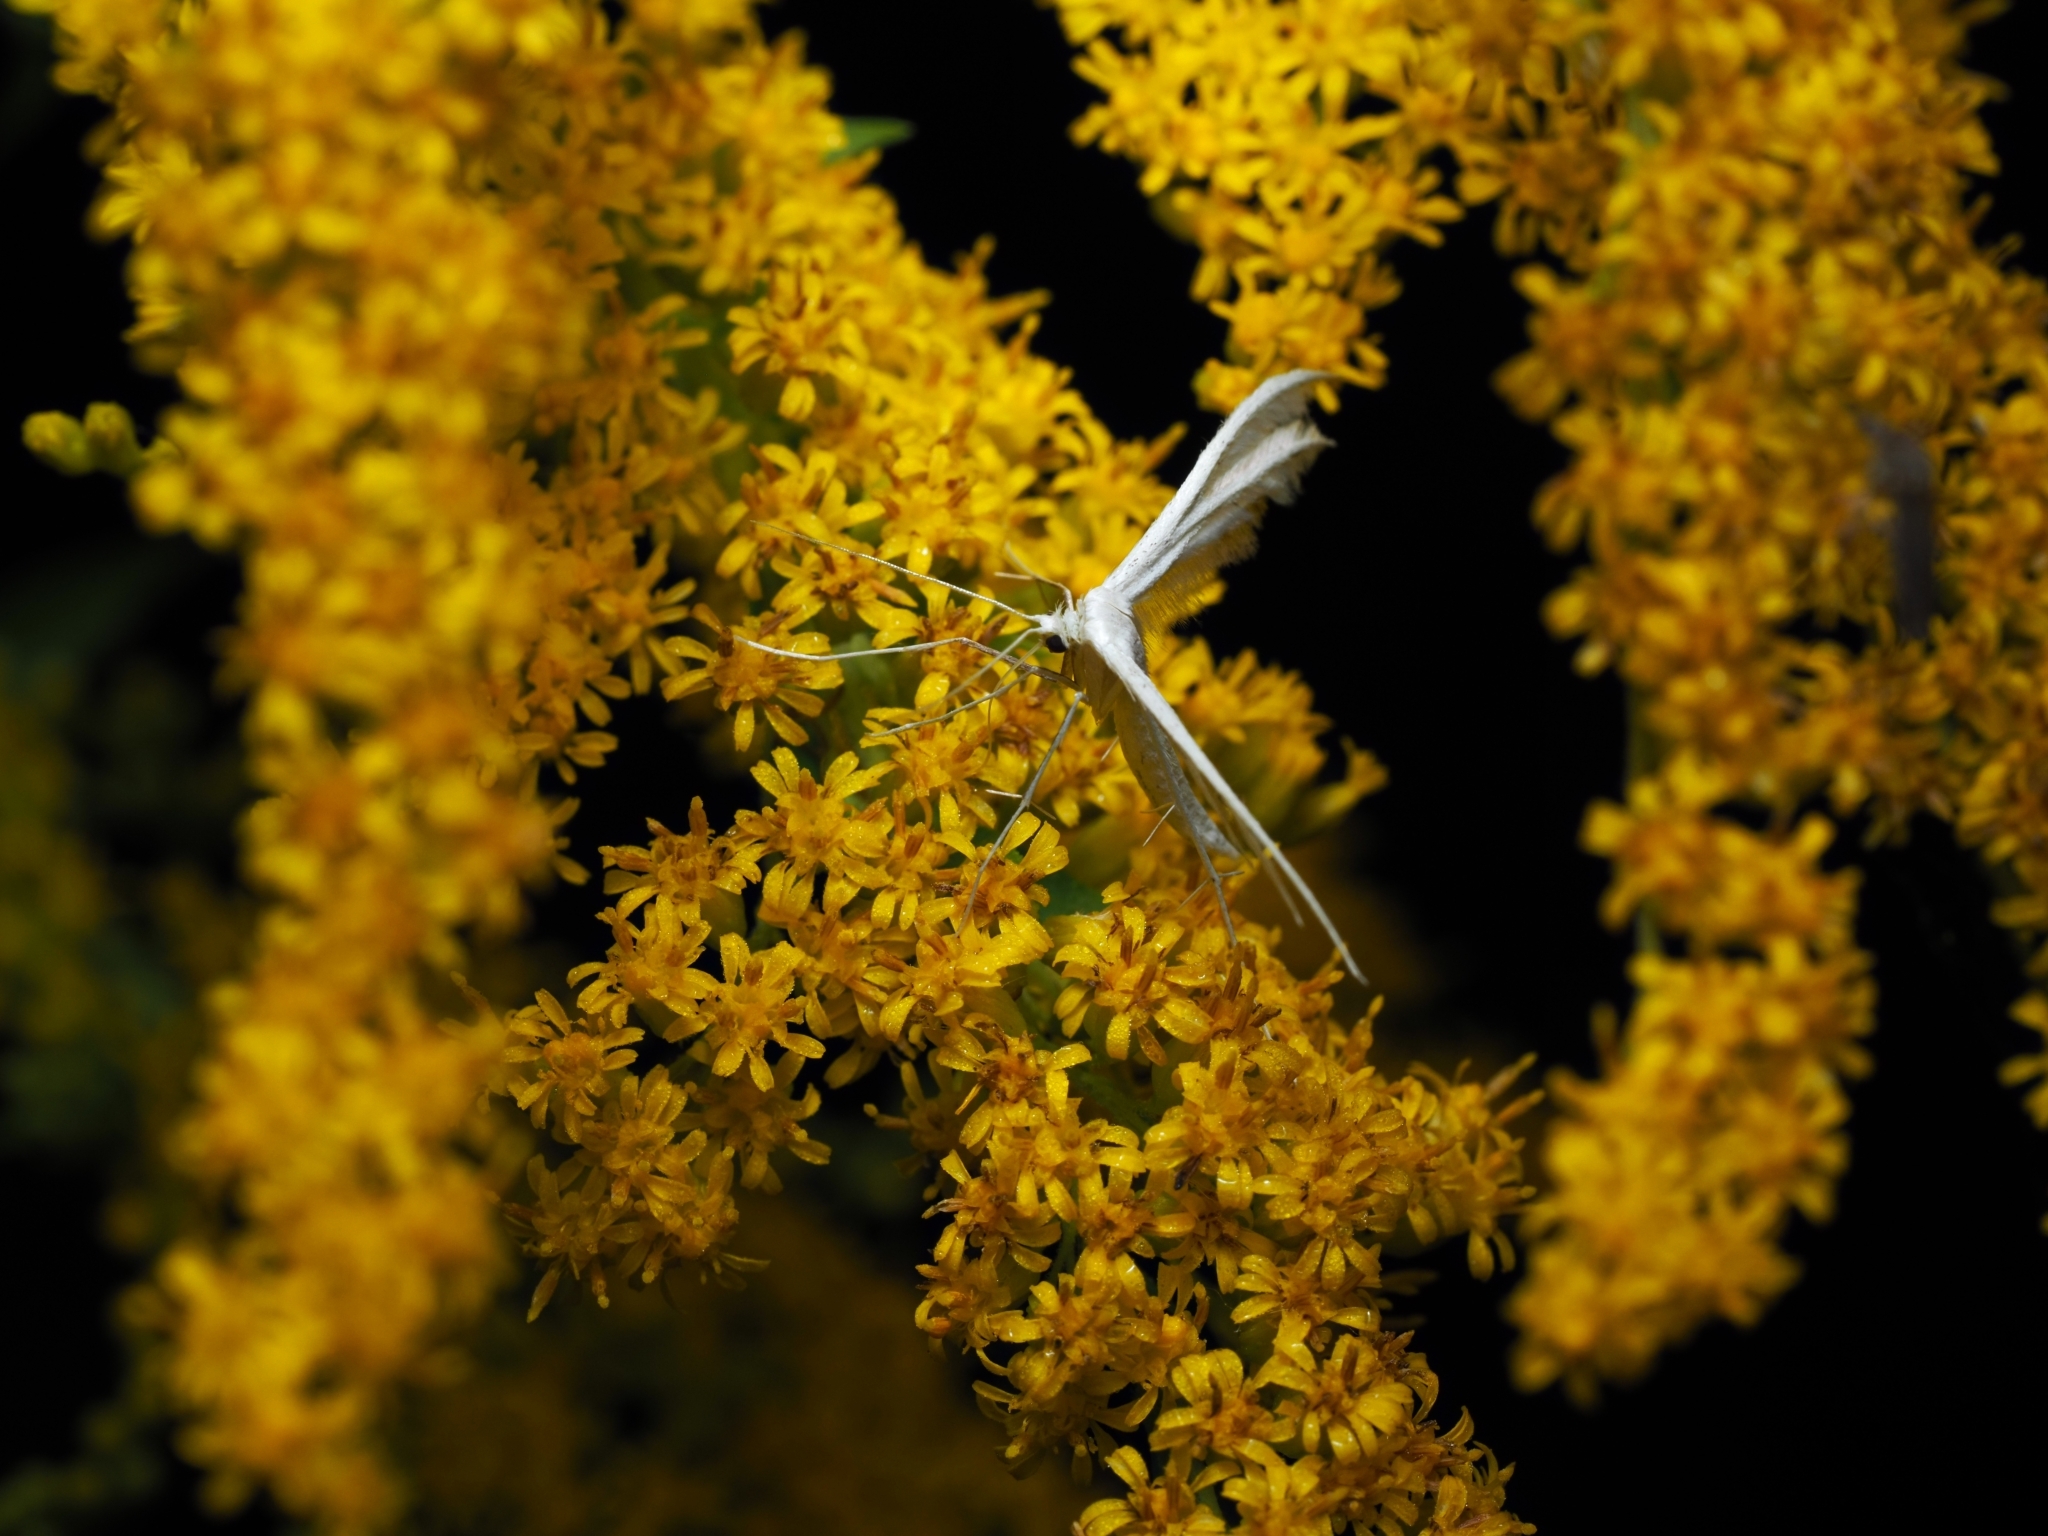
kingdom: Animalia
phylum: Arthropoda
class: Insecta
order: Lepidoptera
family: Pterophoridae
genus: Pterophorus
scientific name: Pterophorus pentadactyla
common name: White plume moth
